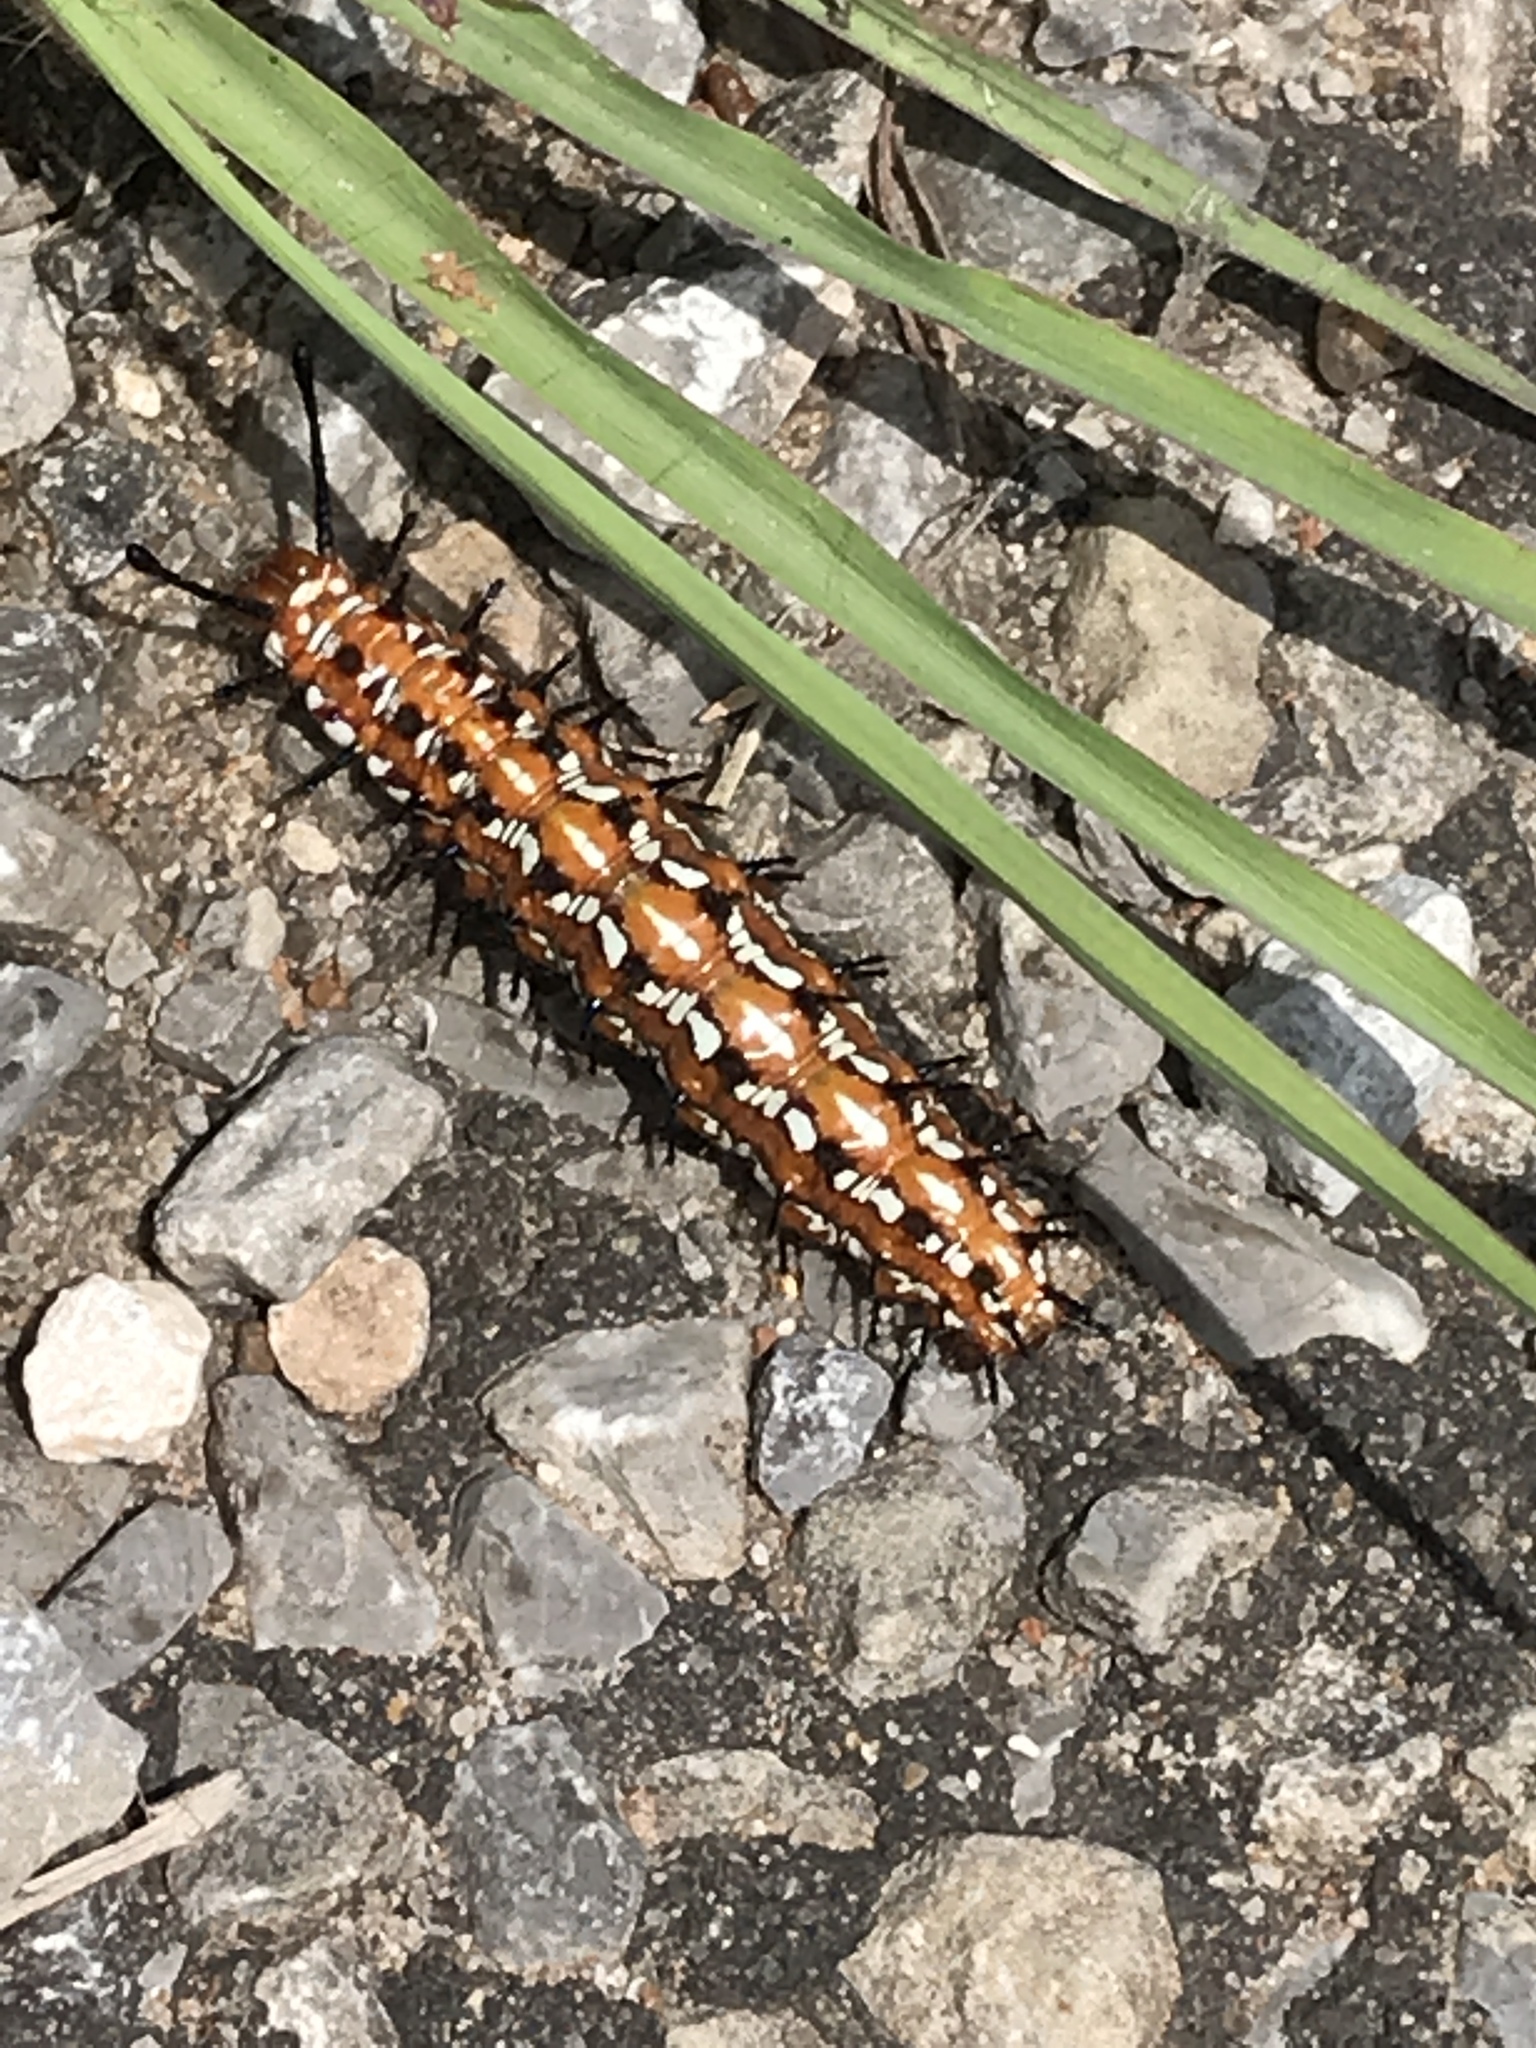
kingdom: Animalia
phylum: Arthropoda
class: Insecta
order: Lepidoptera
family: Nymphalidae
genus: Euptoieta
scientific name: Euptoieta claudia
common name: Variegated fritillary
